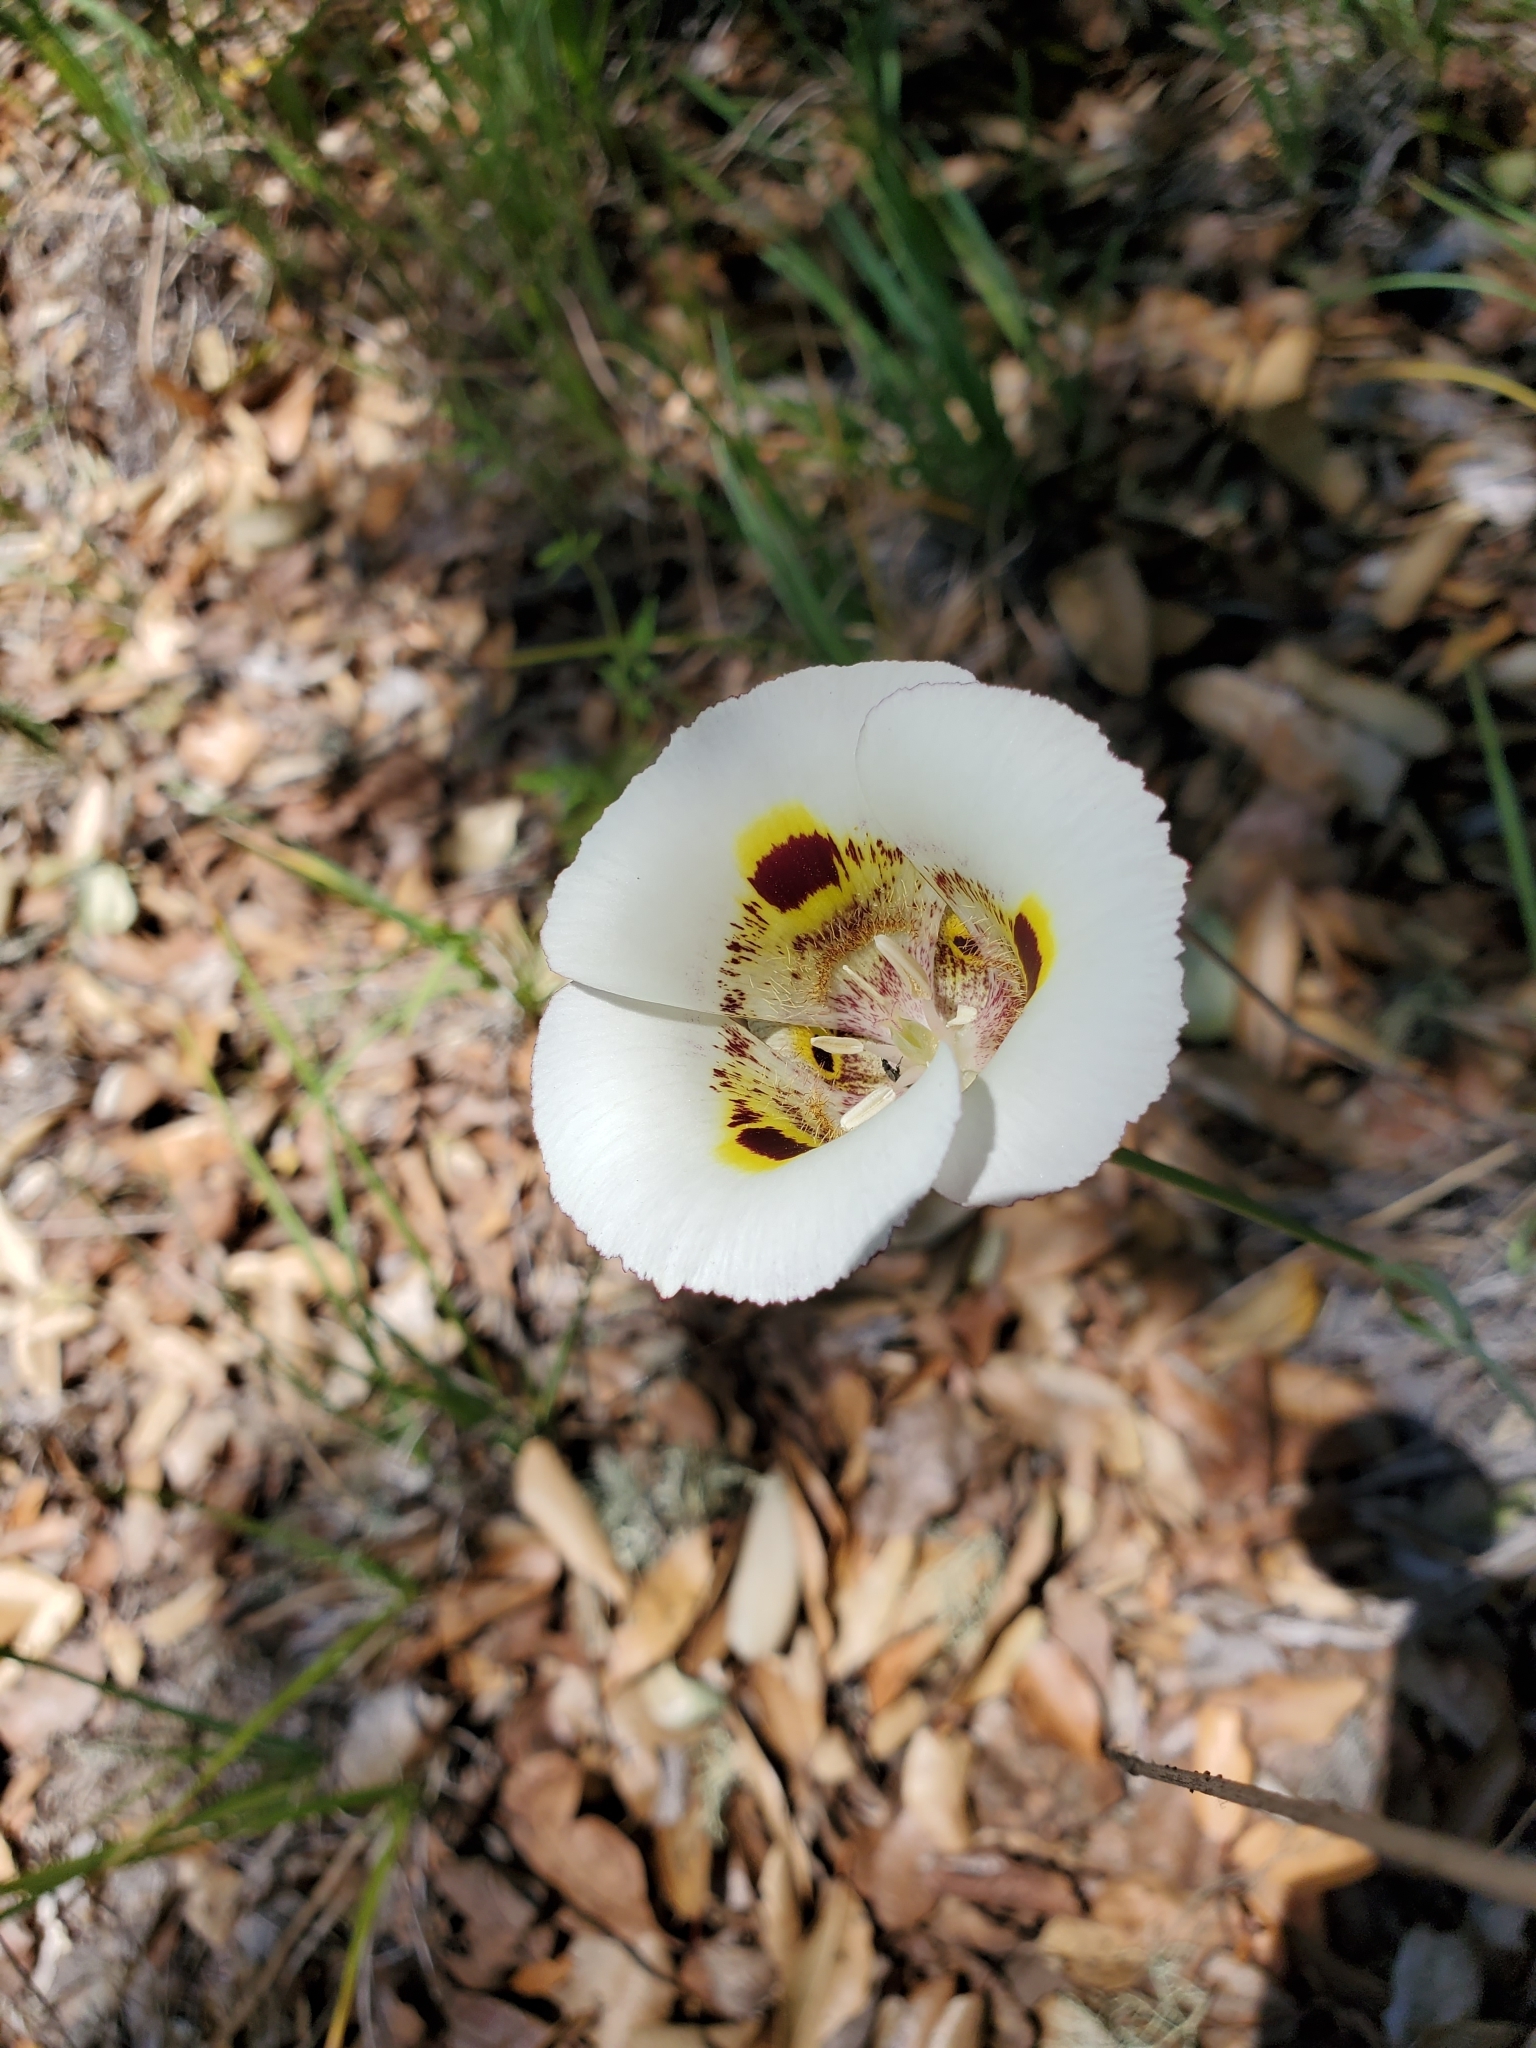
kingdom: Plantae
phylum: Tracheophyta
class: Liliopsida
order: Liliales
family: Liliaceae
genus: Calochortus
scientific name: Calochortus superbus
